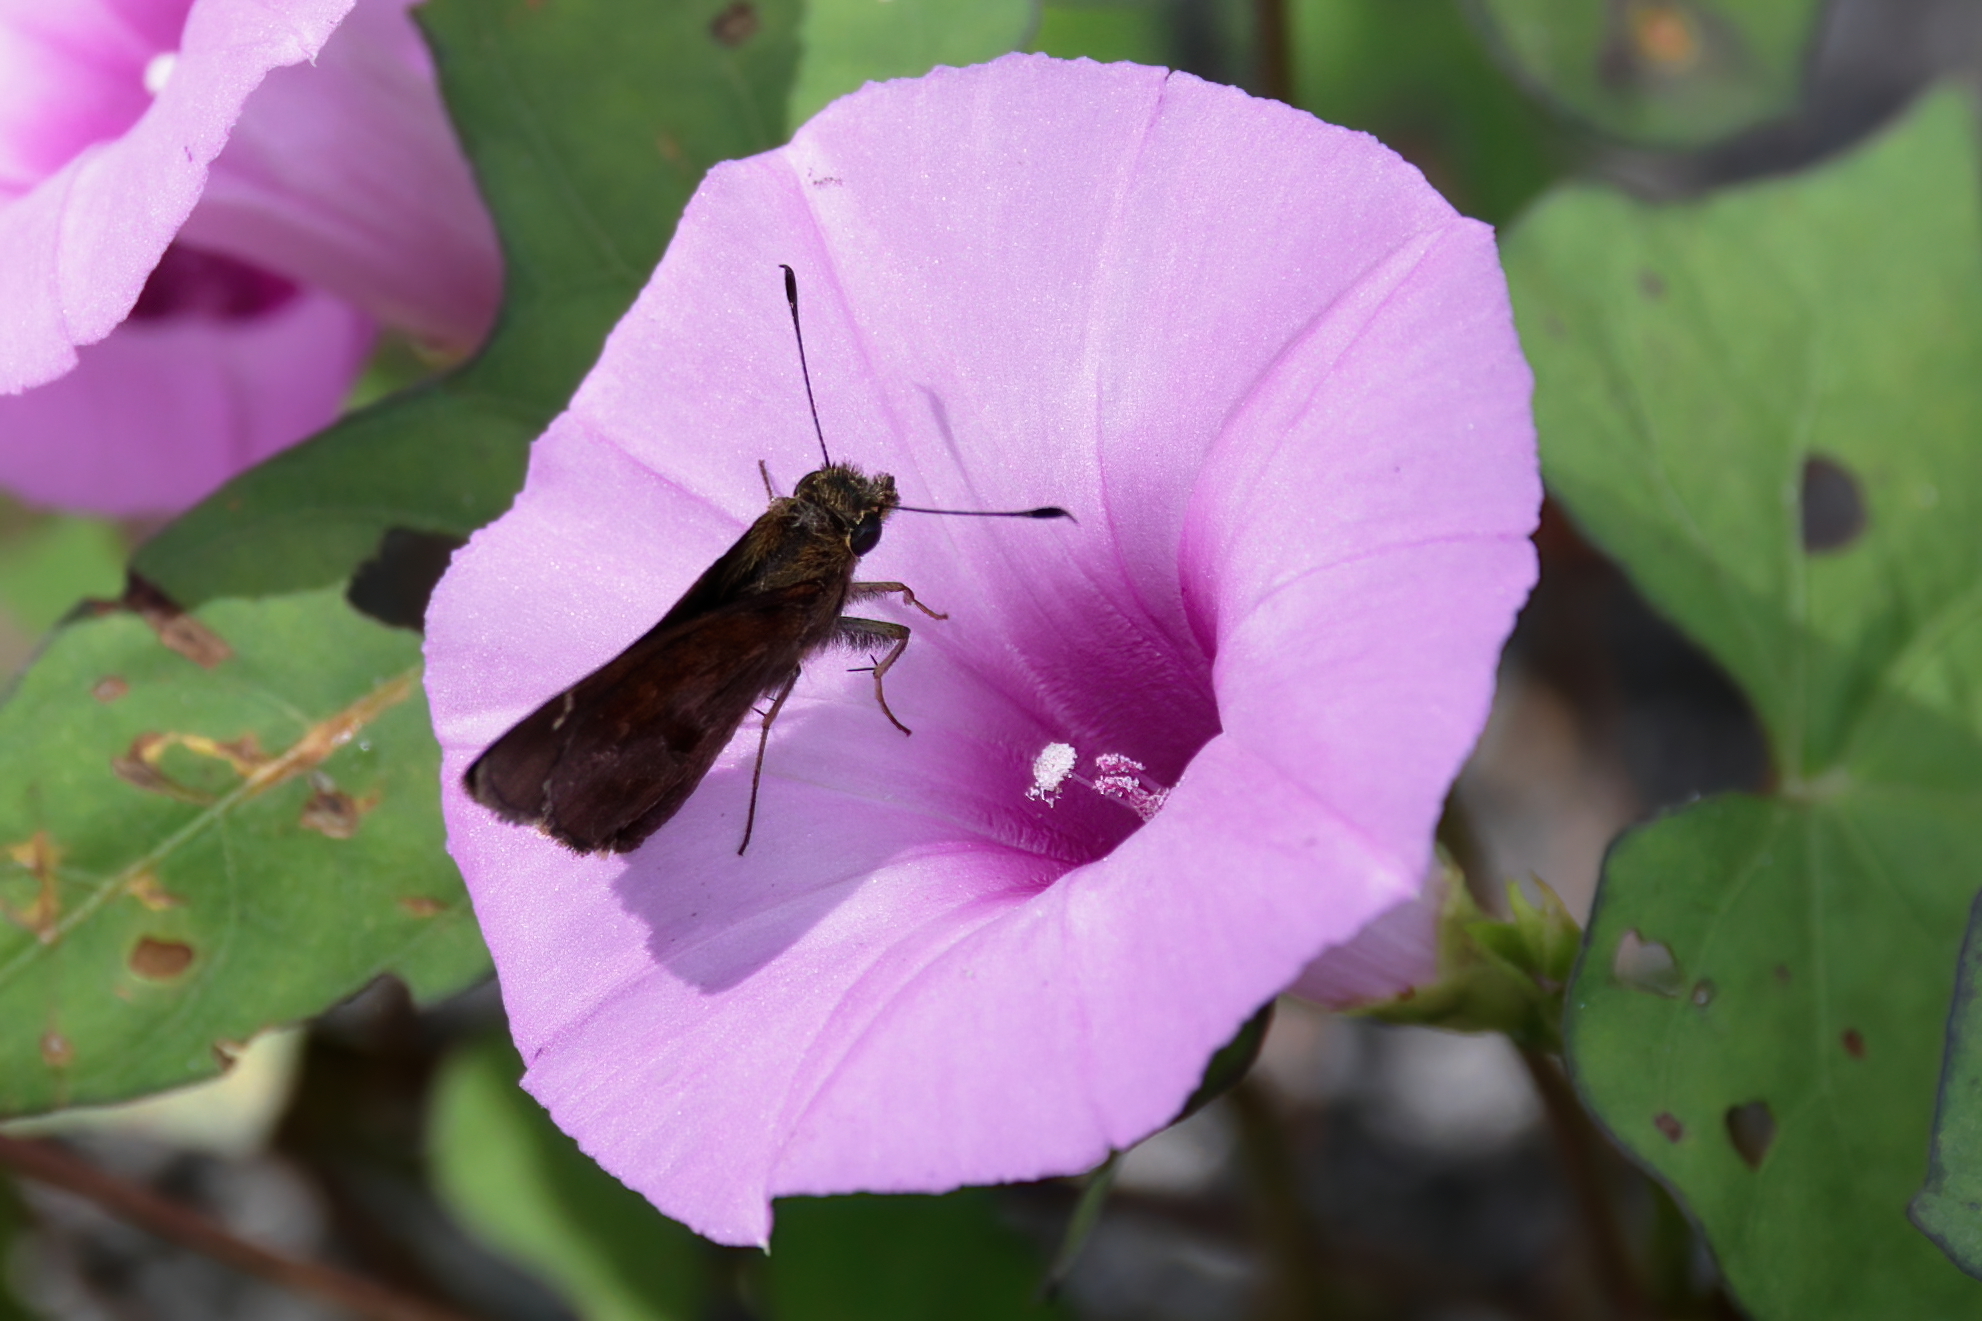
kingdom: Animalia
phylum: Arthropoda
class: Insecta
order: Lepidoptera
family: Hesperiidae
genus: Lerema
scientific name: Lerema accius
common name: Clouded skipper
